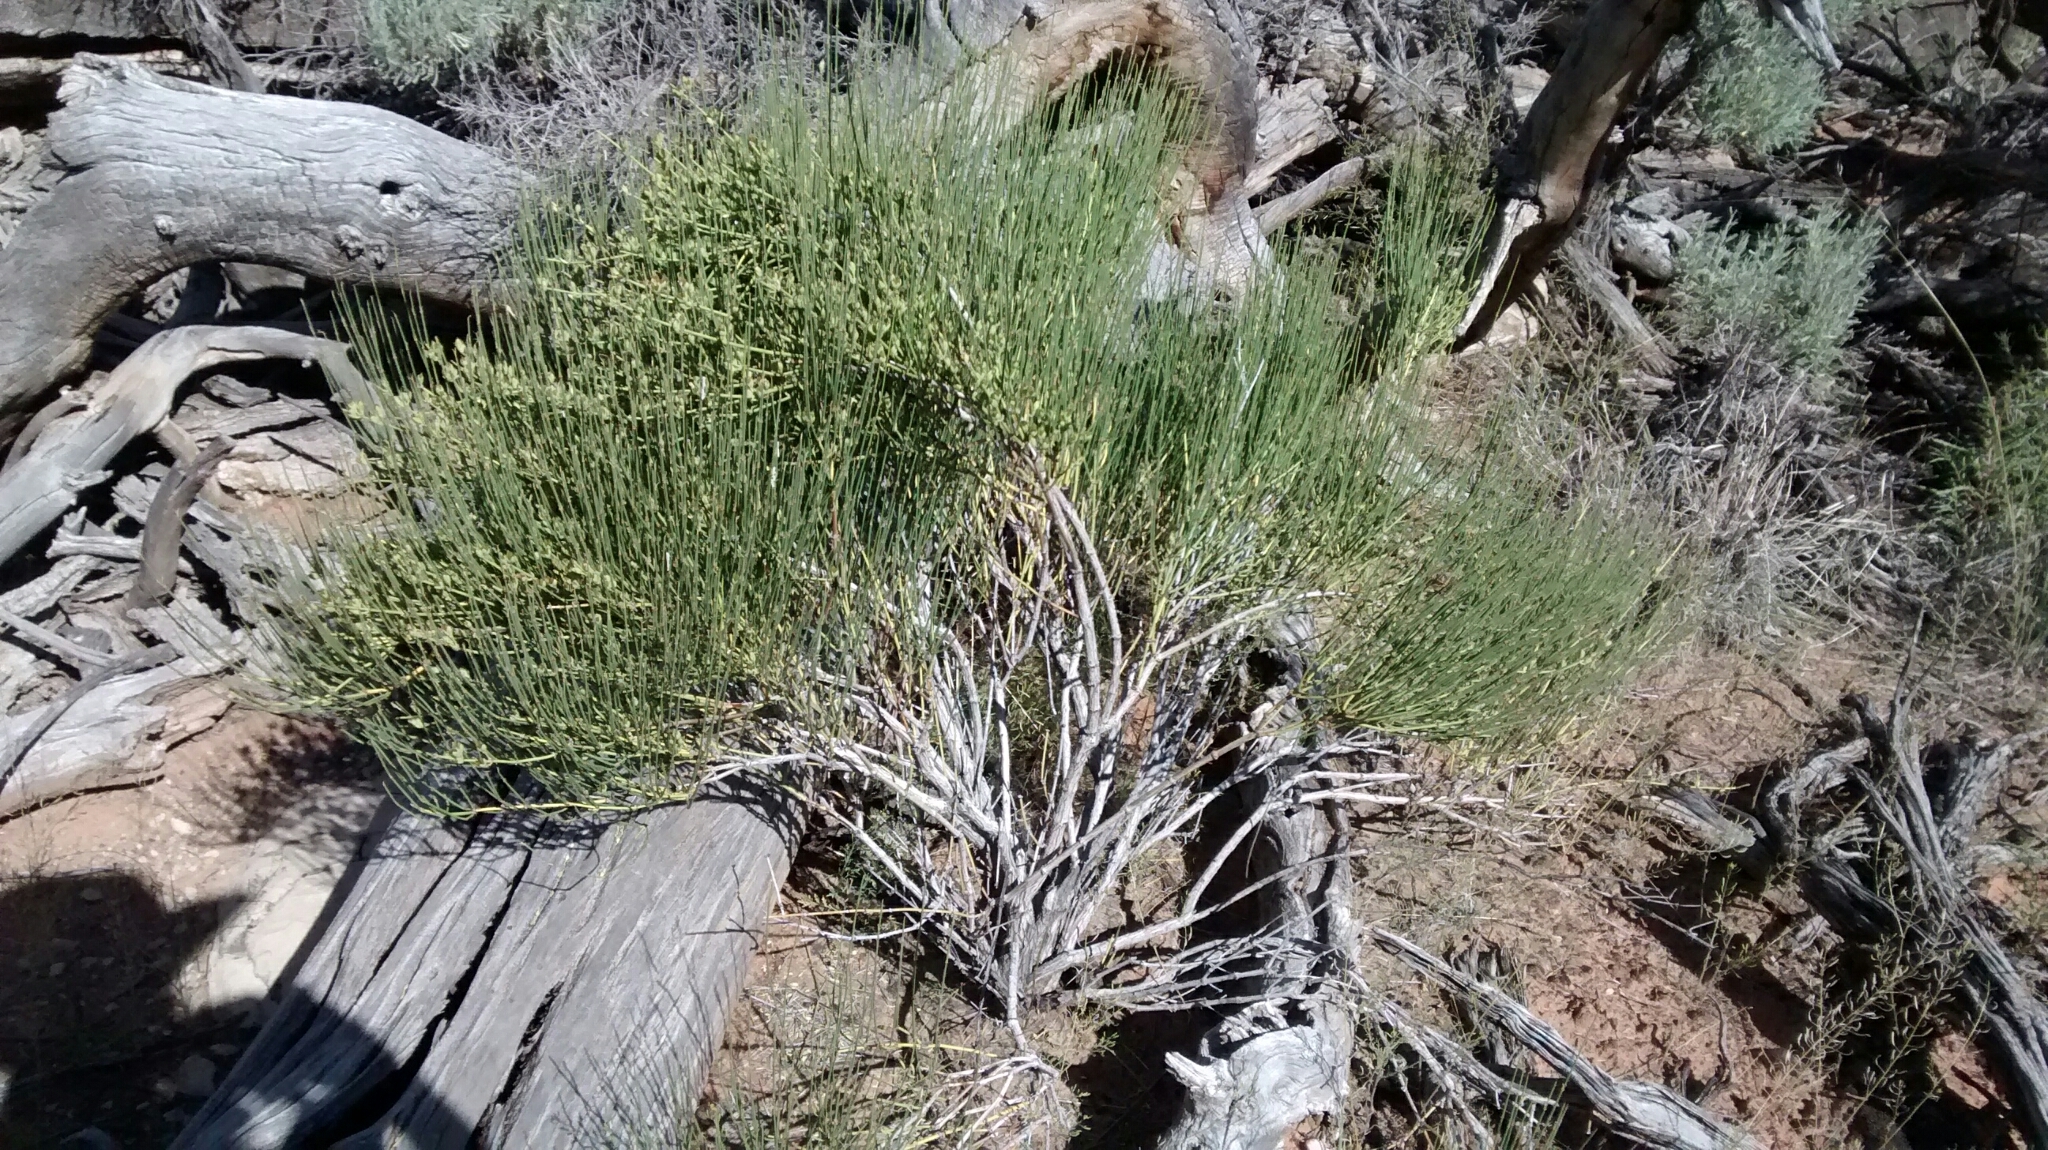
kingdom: Plantae
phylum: Tracheophyta
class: Gnetopsida
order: Ephedrales
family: Ephedraceae
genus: Ephedra
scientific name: Ephedra viridis
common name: Green ephedra
